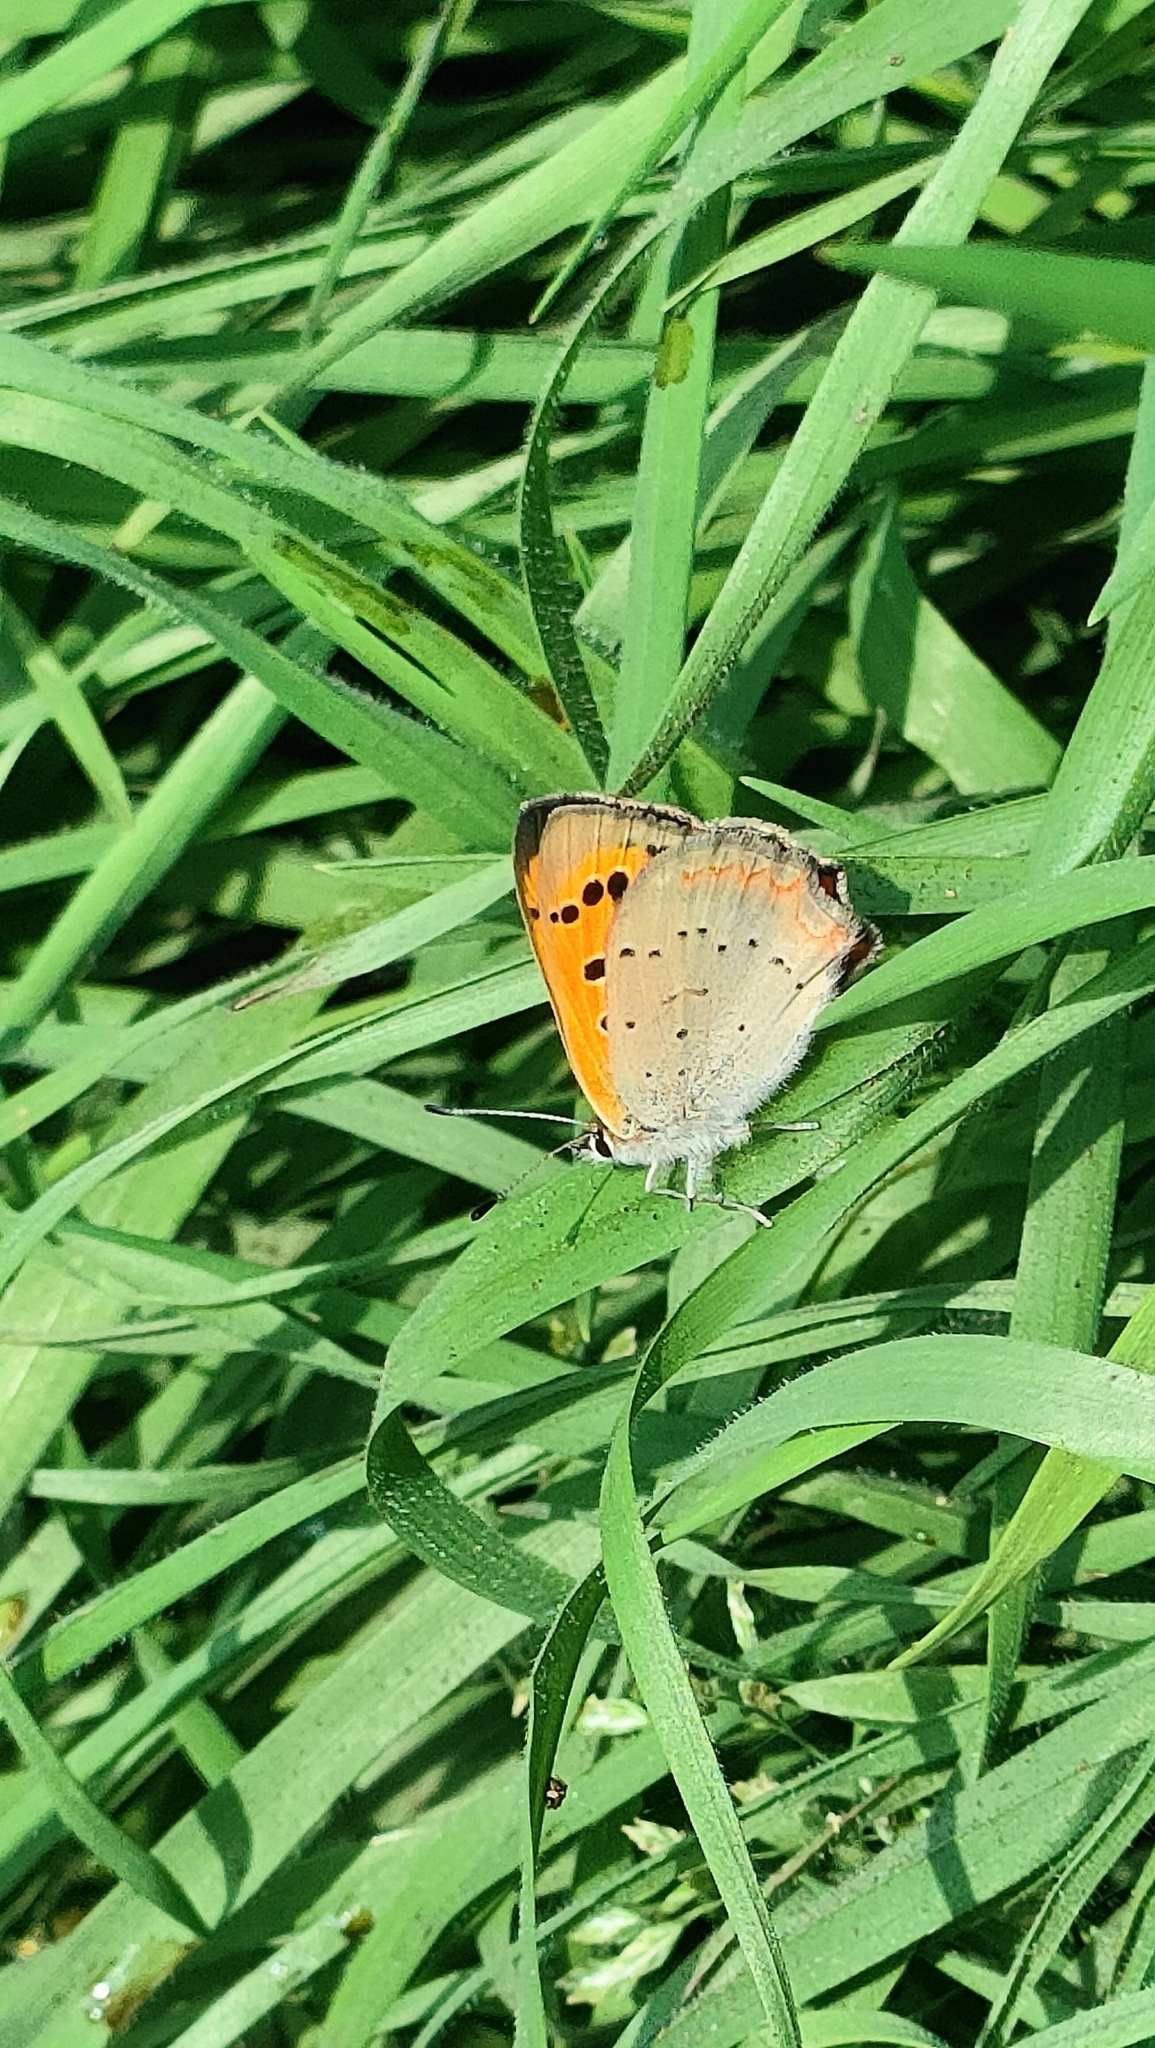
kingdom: Animalia
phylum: Arthropoda
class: Insecta
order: Lepidoptera
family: Lycaenidae
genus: Lycaena
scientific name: Lycaena phlaeas
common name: Small copper
